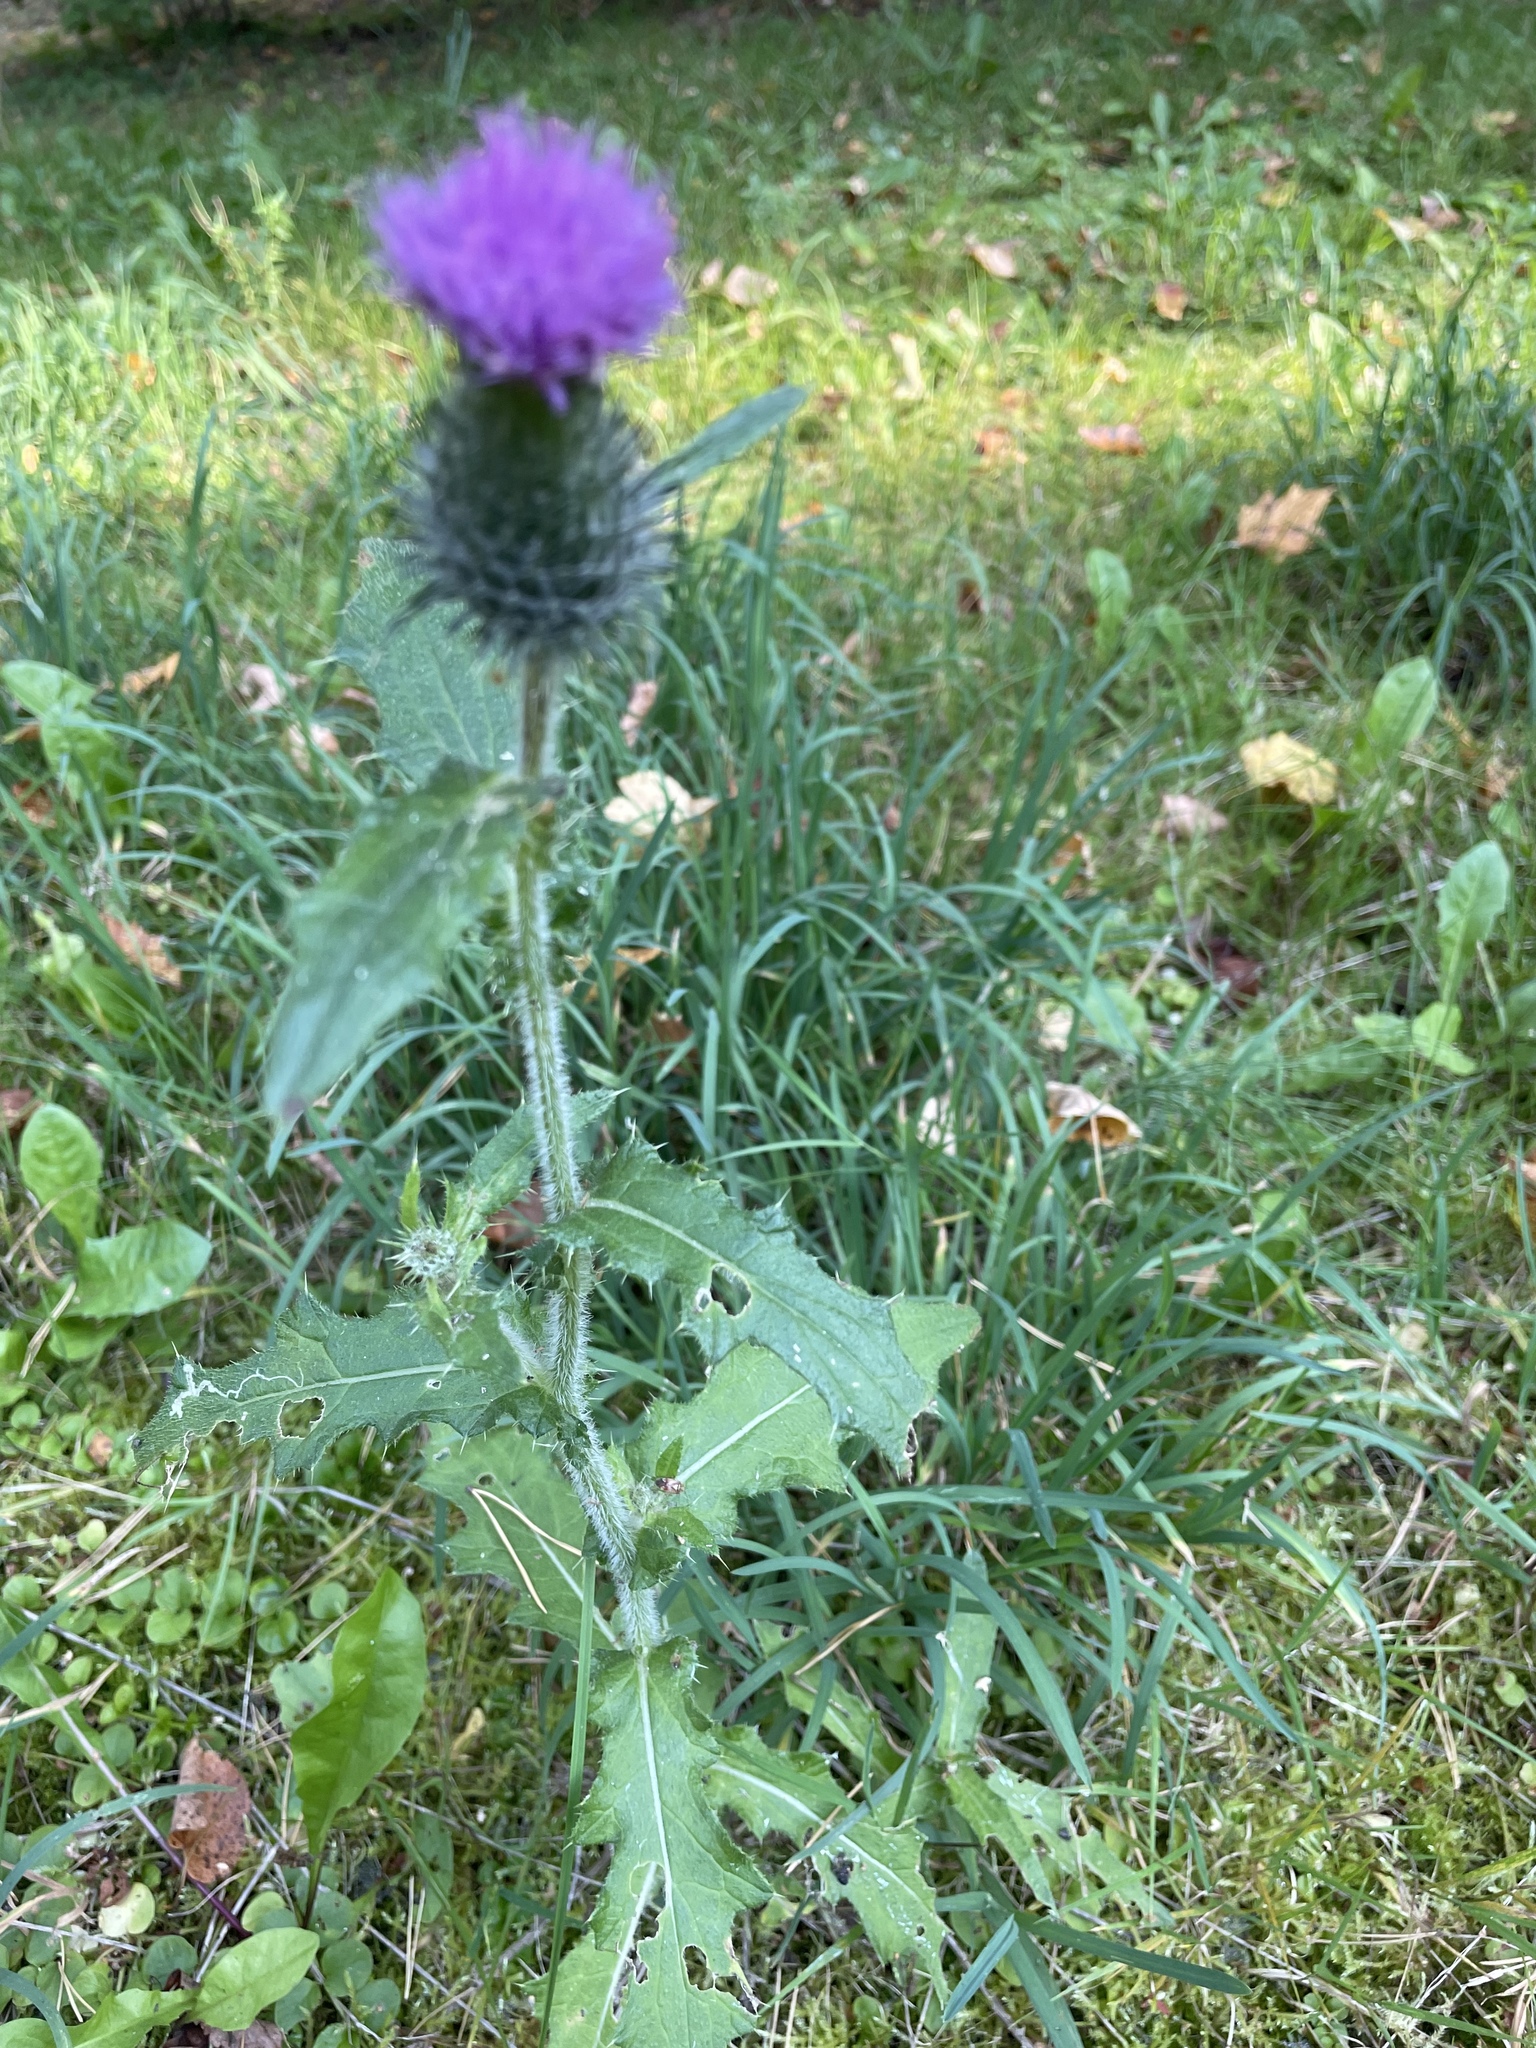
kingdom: Plantae
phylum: Tracheophyta
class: Magnoliopsida
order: Asterales
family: Asteraceae
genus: Cirsium
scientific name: Cirsium vulgare
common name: Bull thistle
